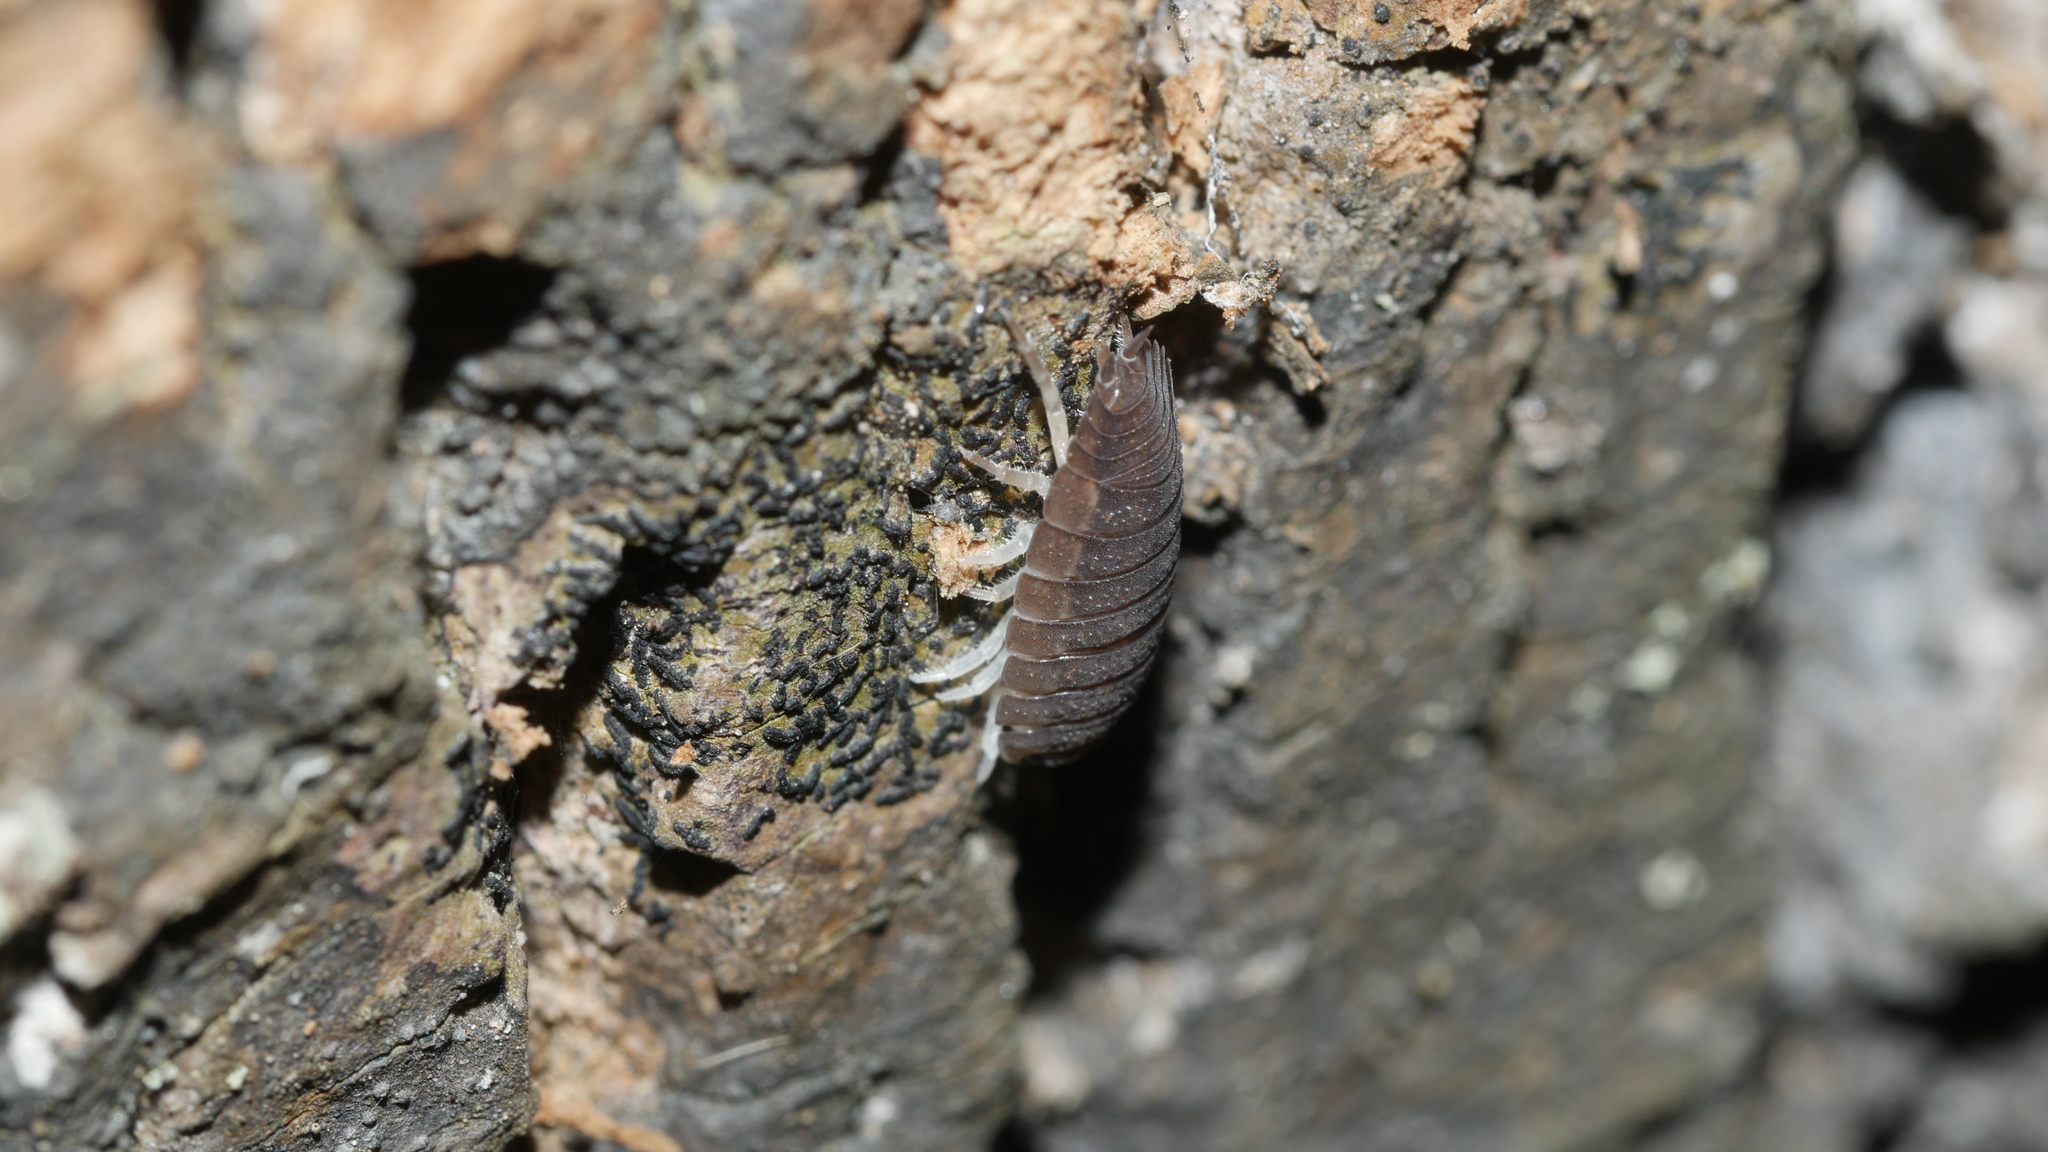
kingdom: Animalia
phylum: Arthropoda
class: Malacostraca
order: Isopoda
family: Porcellionidae
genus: Porcellio
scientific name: Porcellio scaber
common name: Common rough woodlouse
